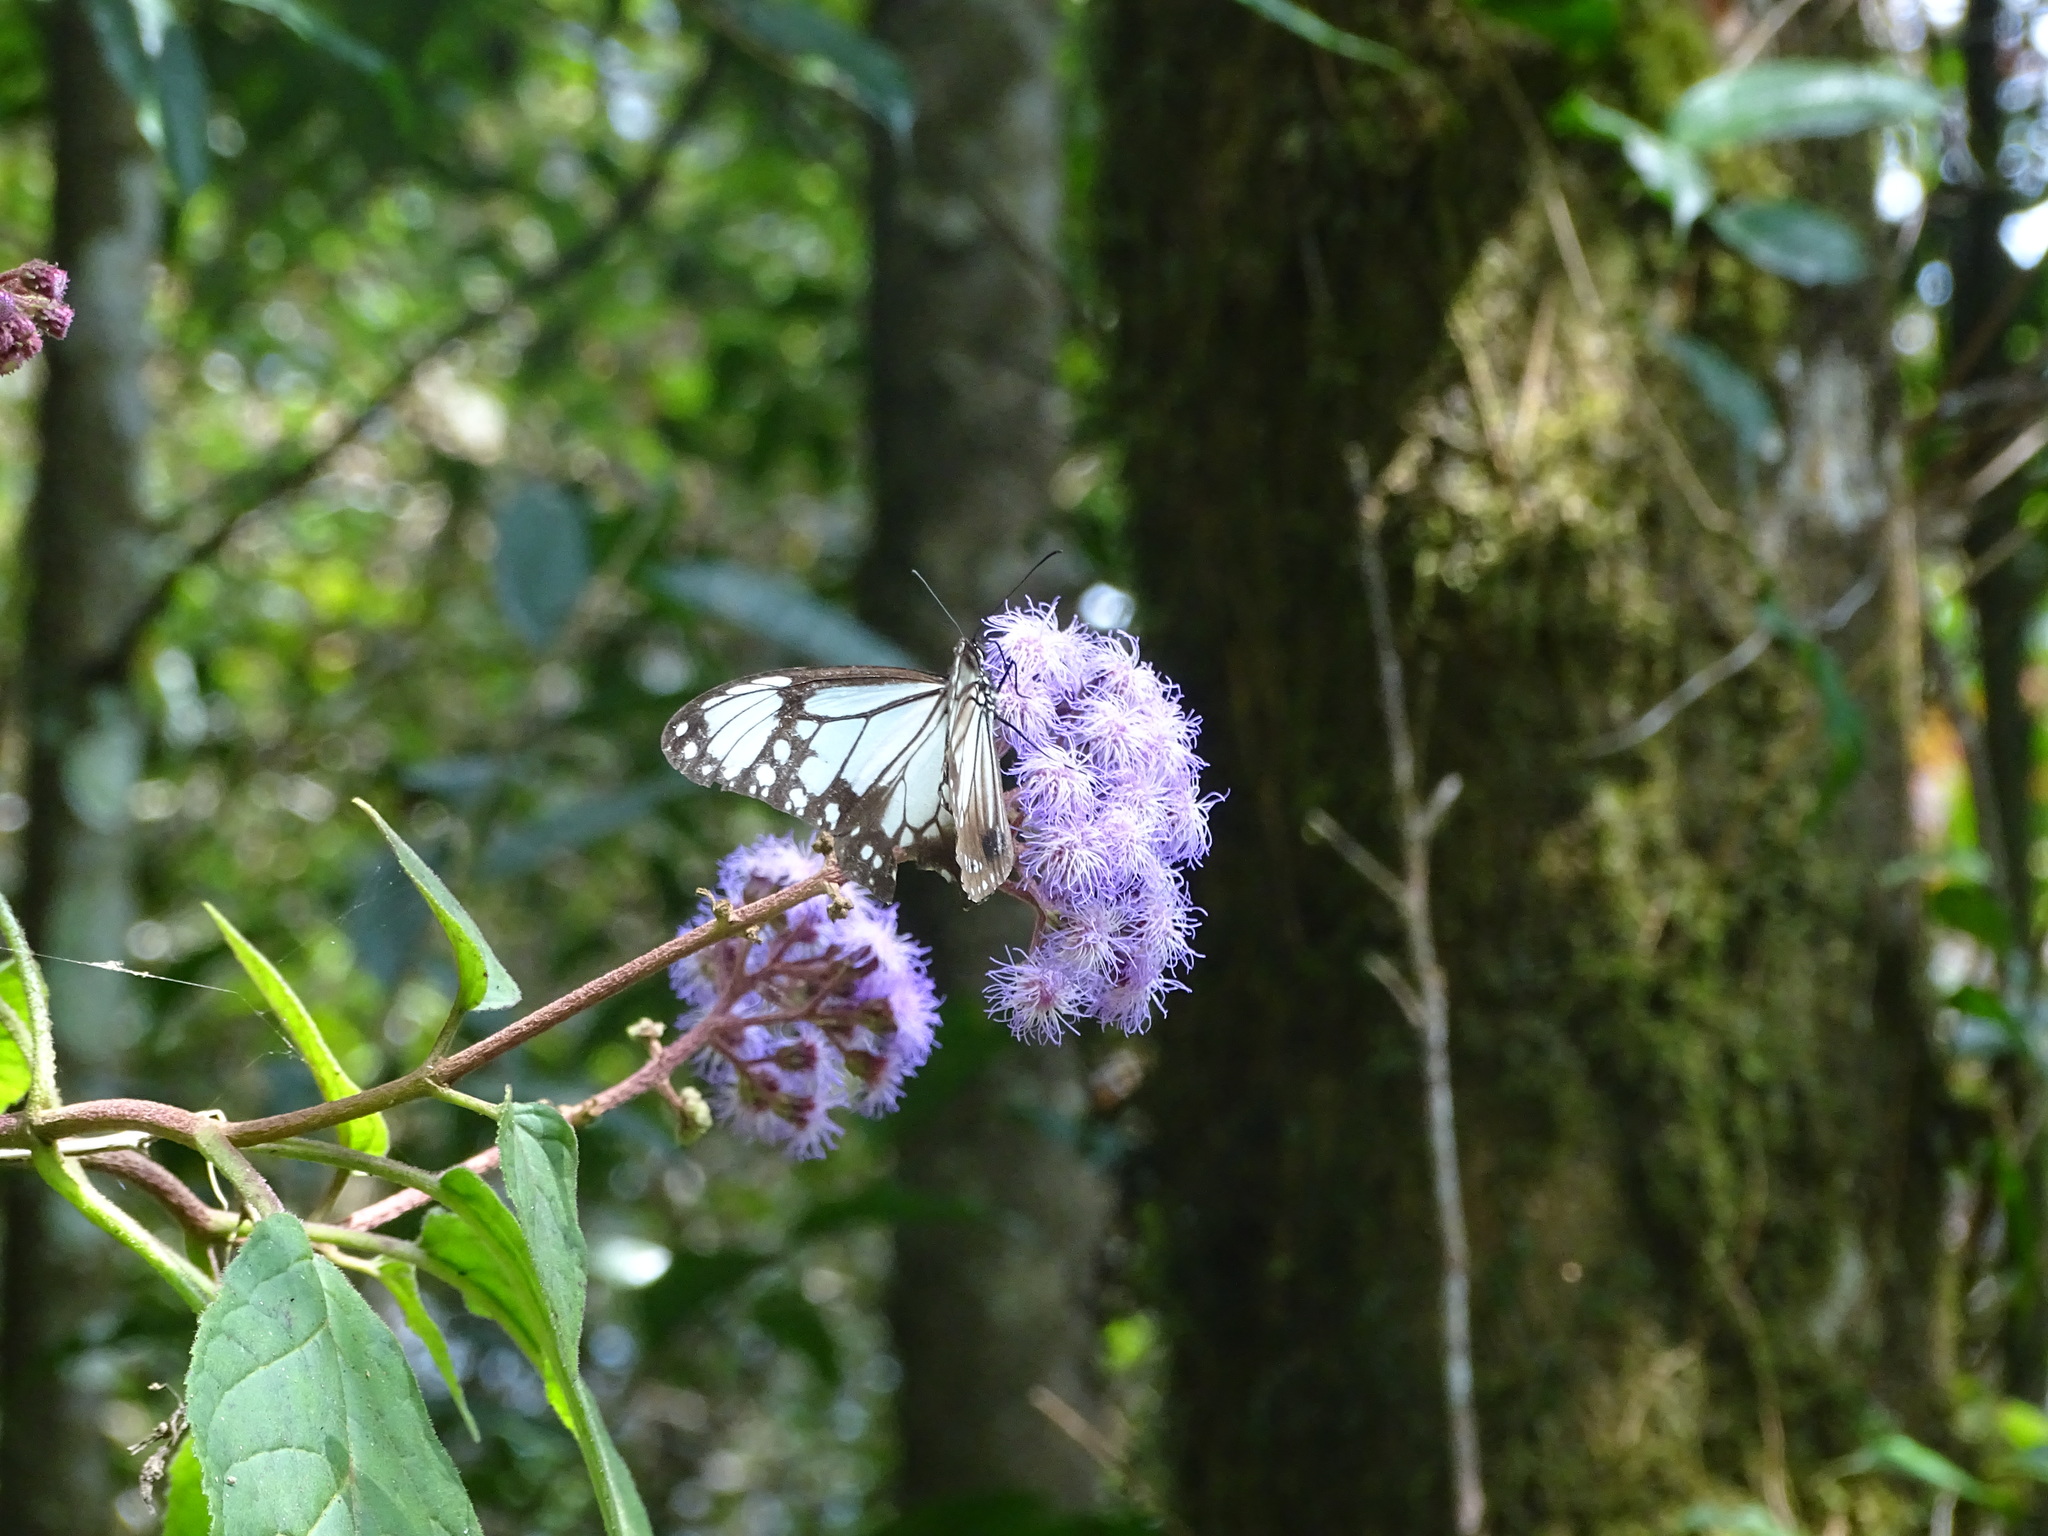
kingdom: Animalia
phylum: Arthropoda
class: Insecta
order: Lepidoptera
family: Nymphalidae
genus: Parantica
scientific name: Parantica albata
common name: Zinken's tiger
